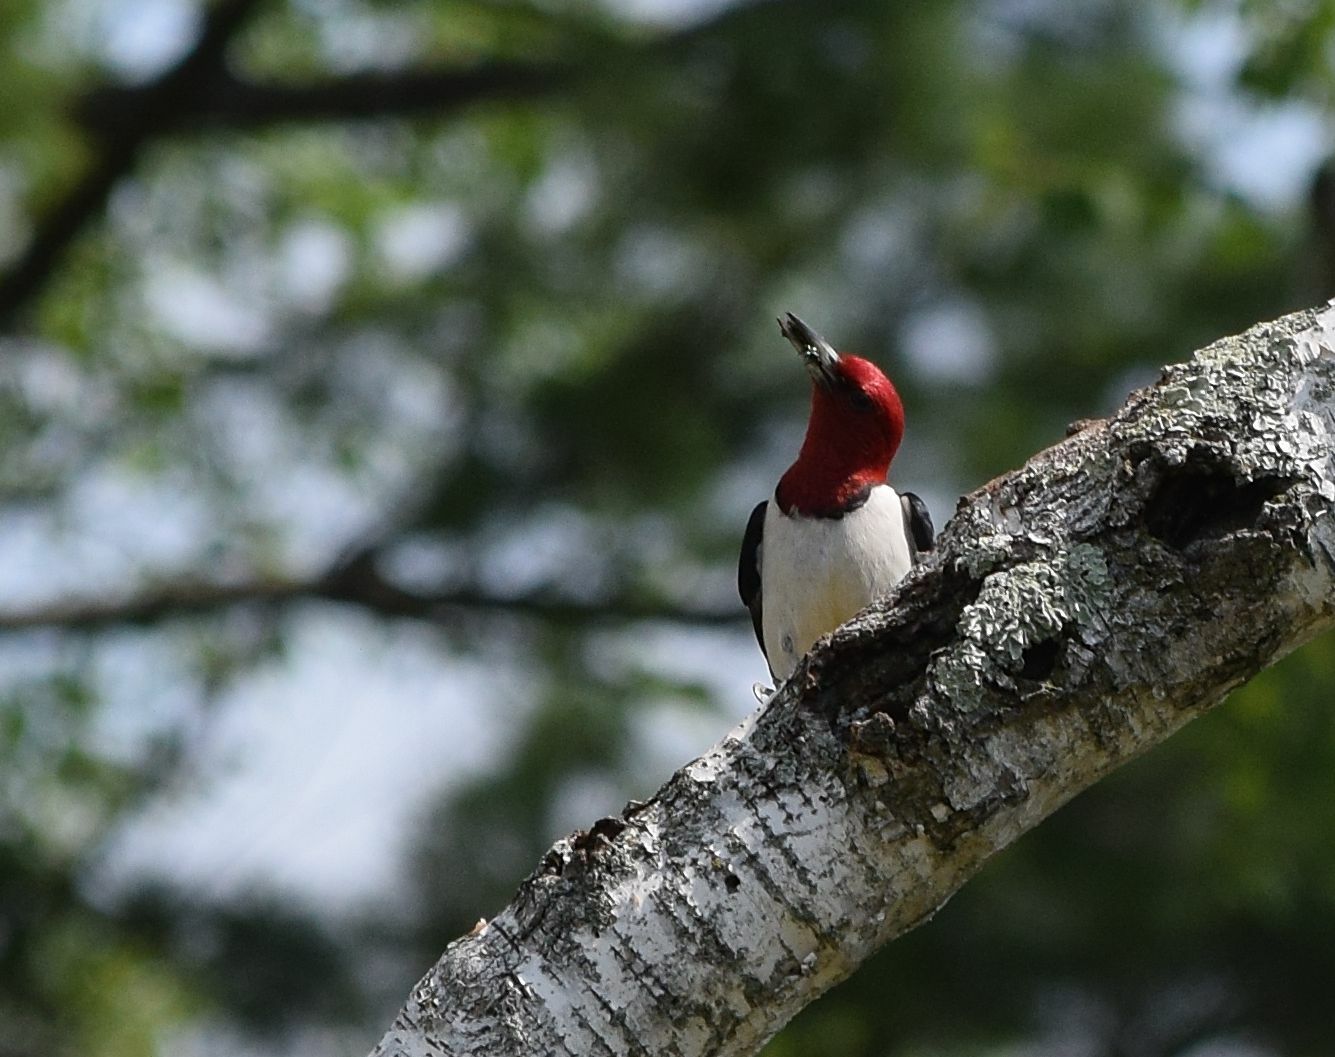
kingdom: Animalia
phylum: Chordata
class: Aves
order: Piciformes
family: Picidae
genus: Melanerpes
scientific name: Melanerpes erythrocephalus
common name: Red-headed woodpecker
